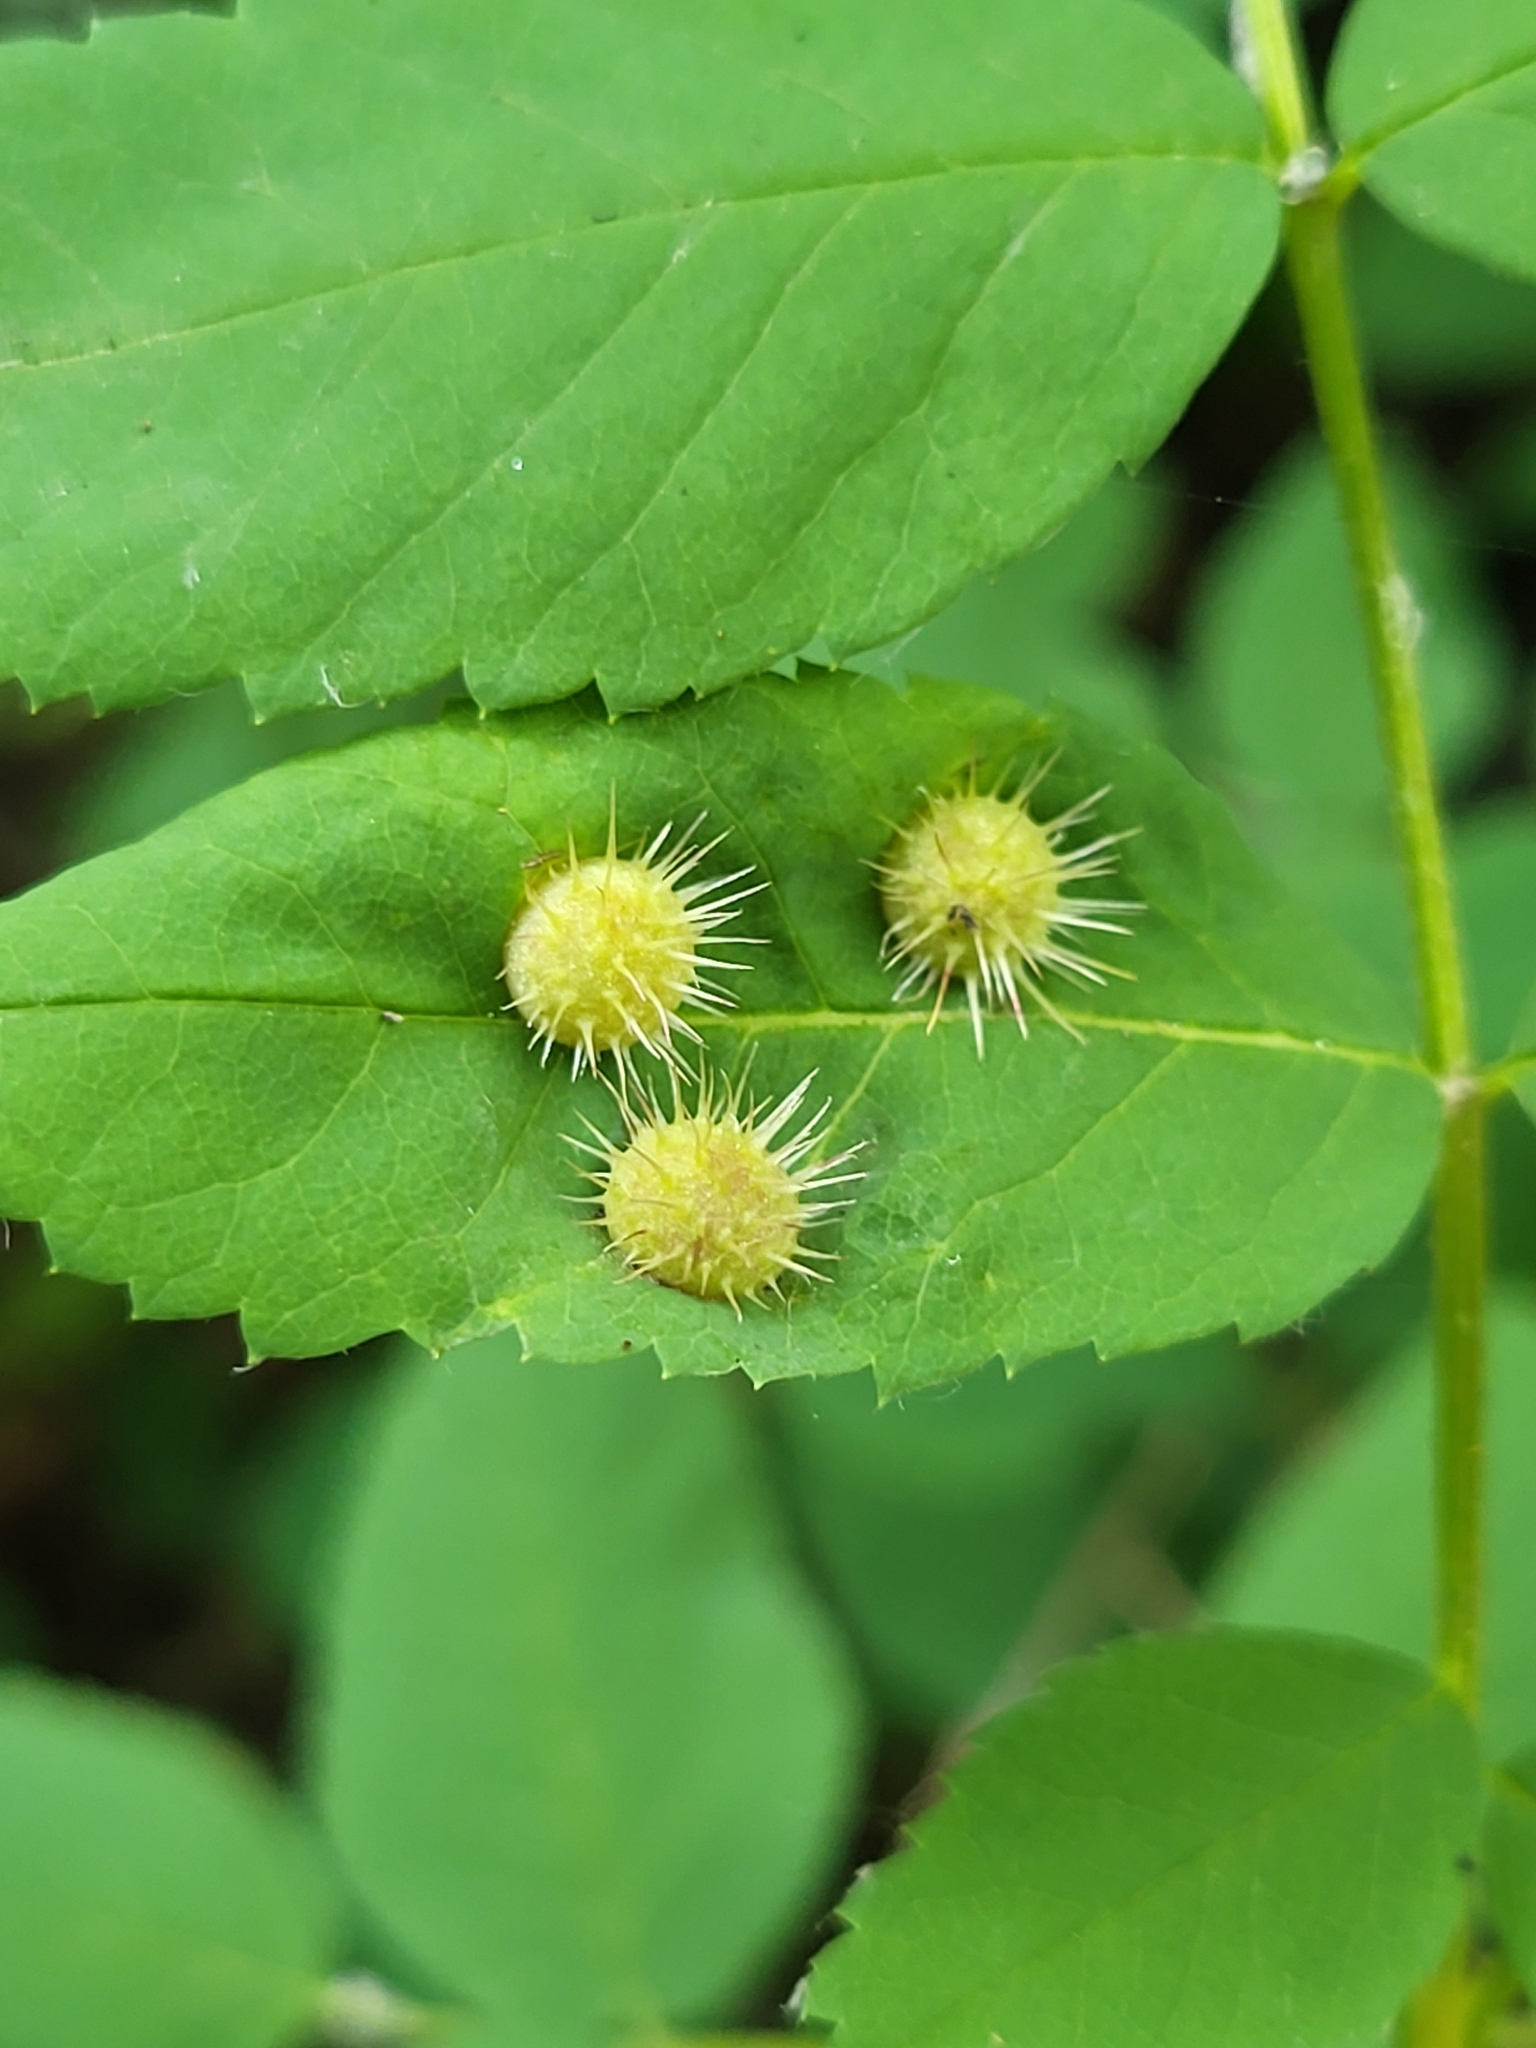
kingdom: Animalia
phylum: Arthropoda
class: Insecta
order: Hymenoptera
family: Cynipidae
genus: Diplolepis
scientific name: Diplolepis polita
